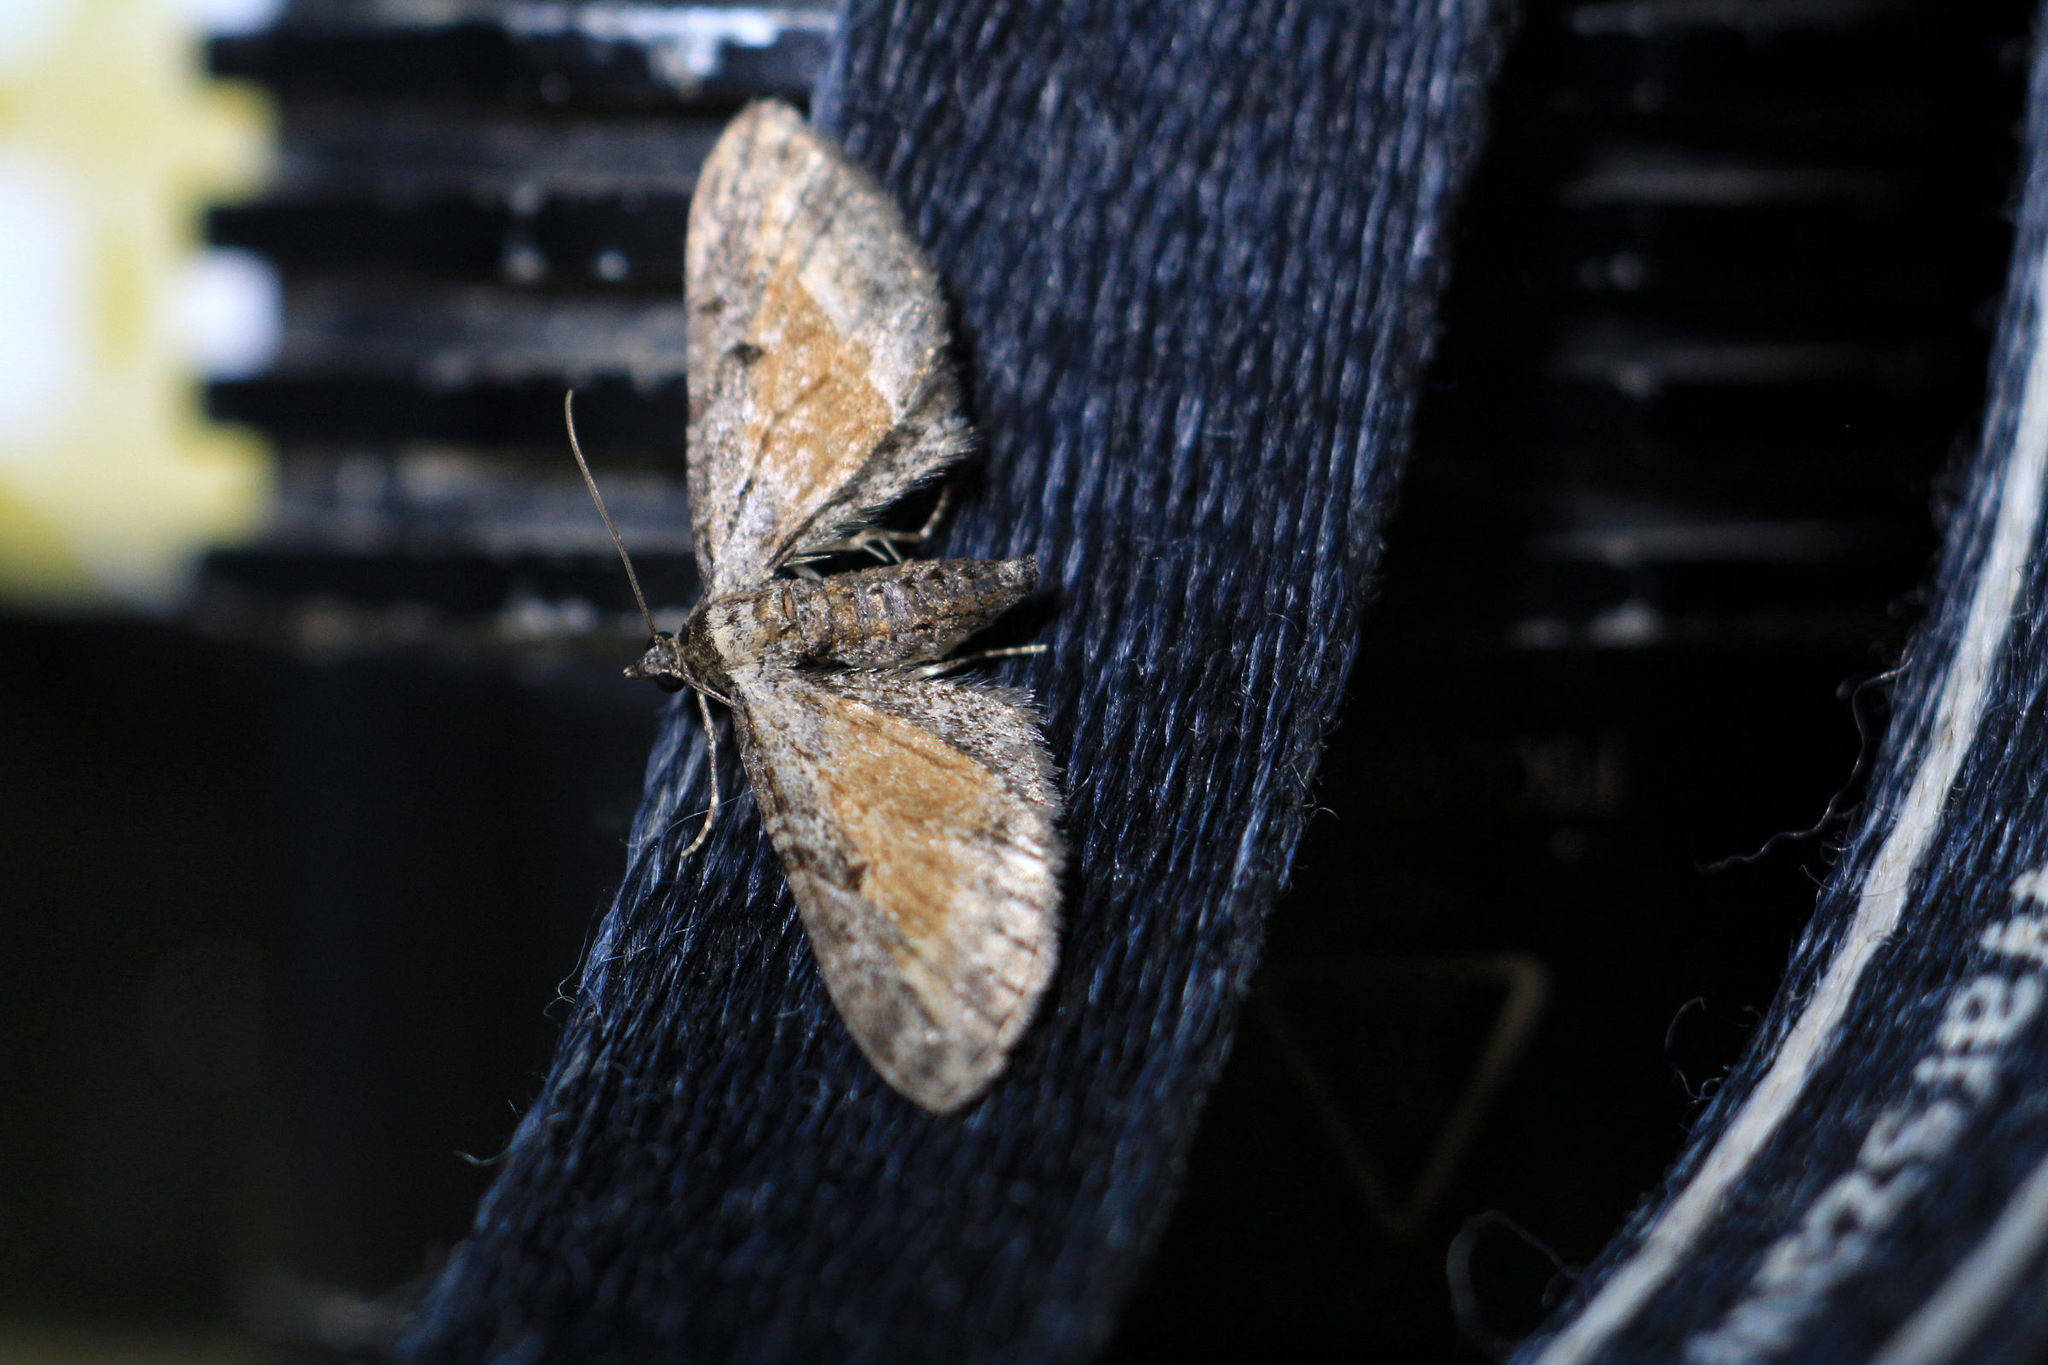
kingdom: Animalia
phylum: Arthropoda
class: Insecta
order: Lepidoptera
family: Geometridae
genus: Eupithecia
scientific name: Eupithecia icterata
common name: Tawny speckled pug
